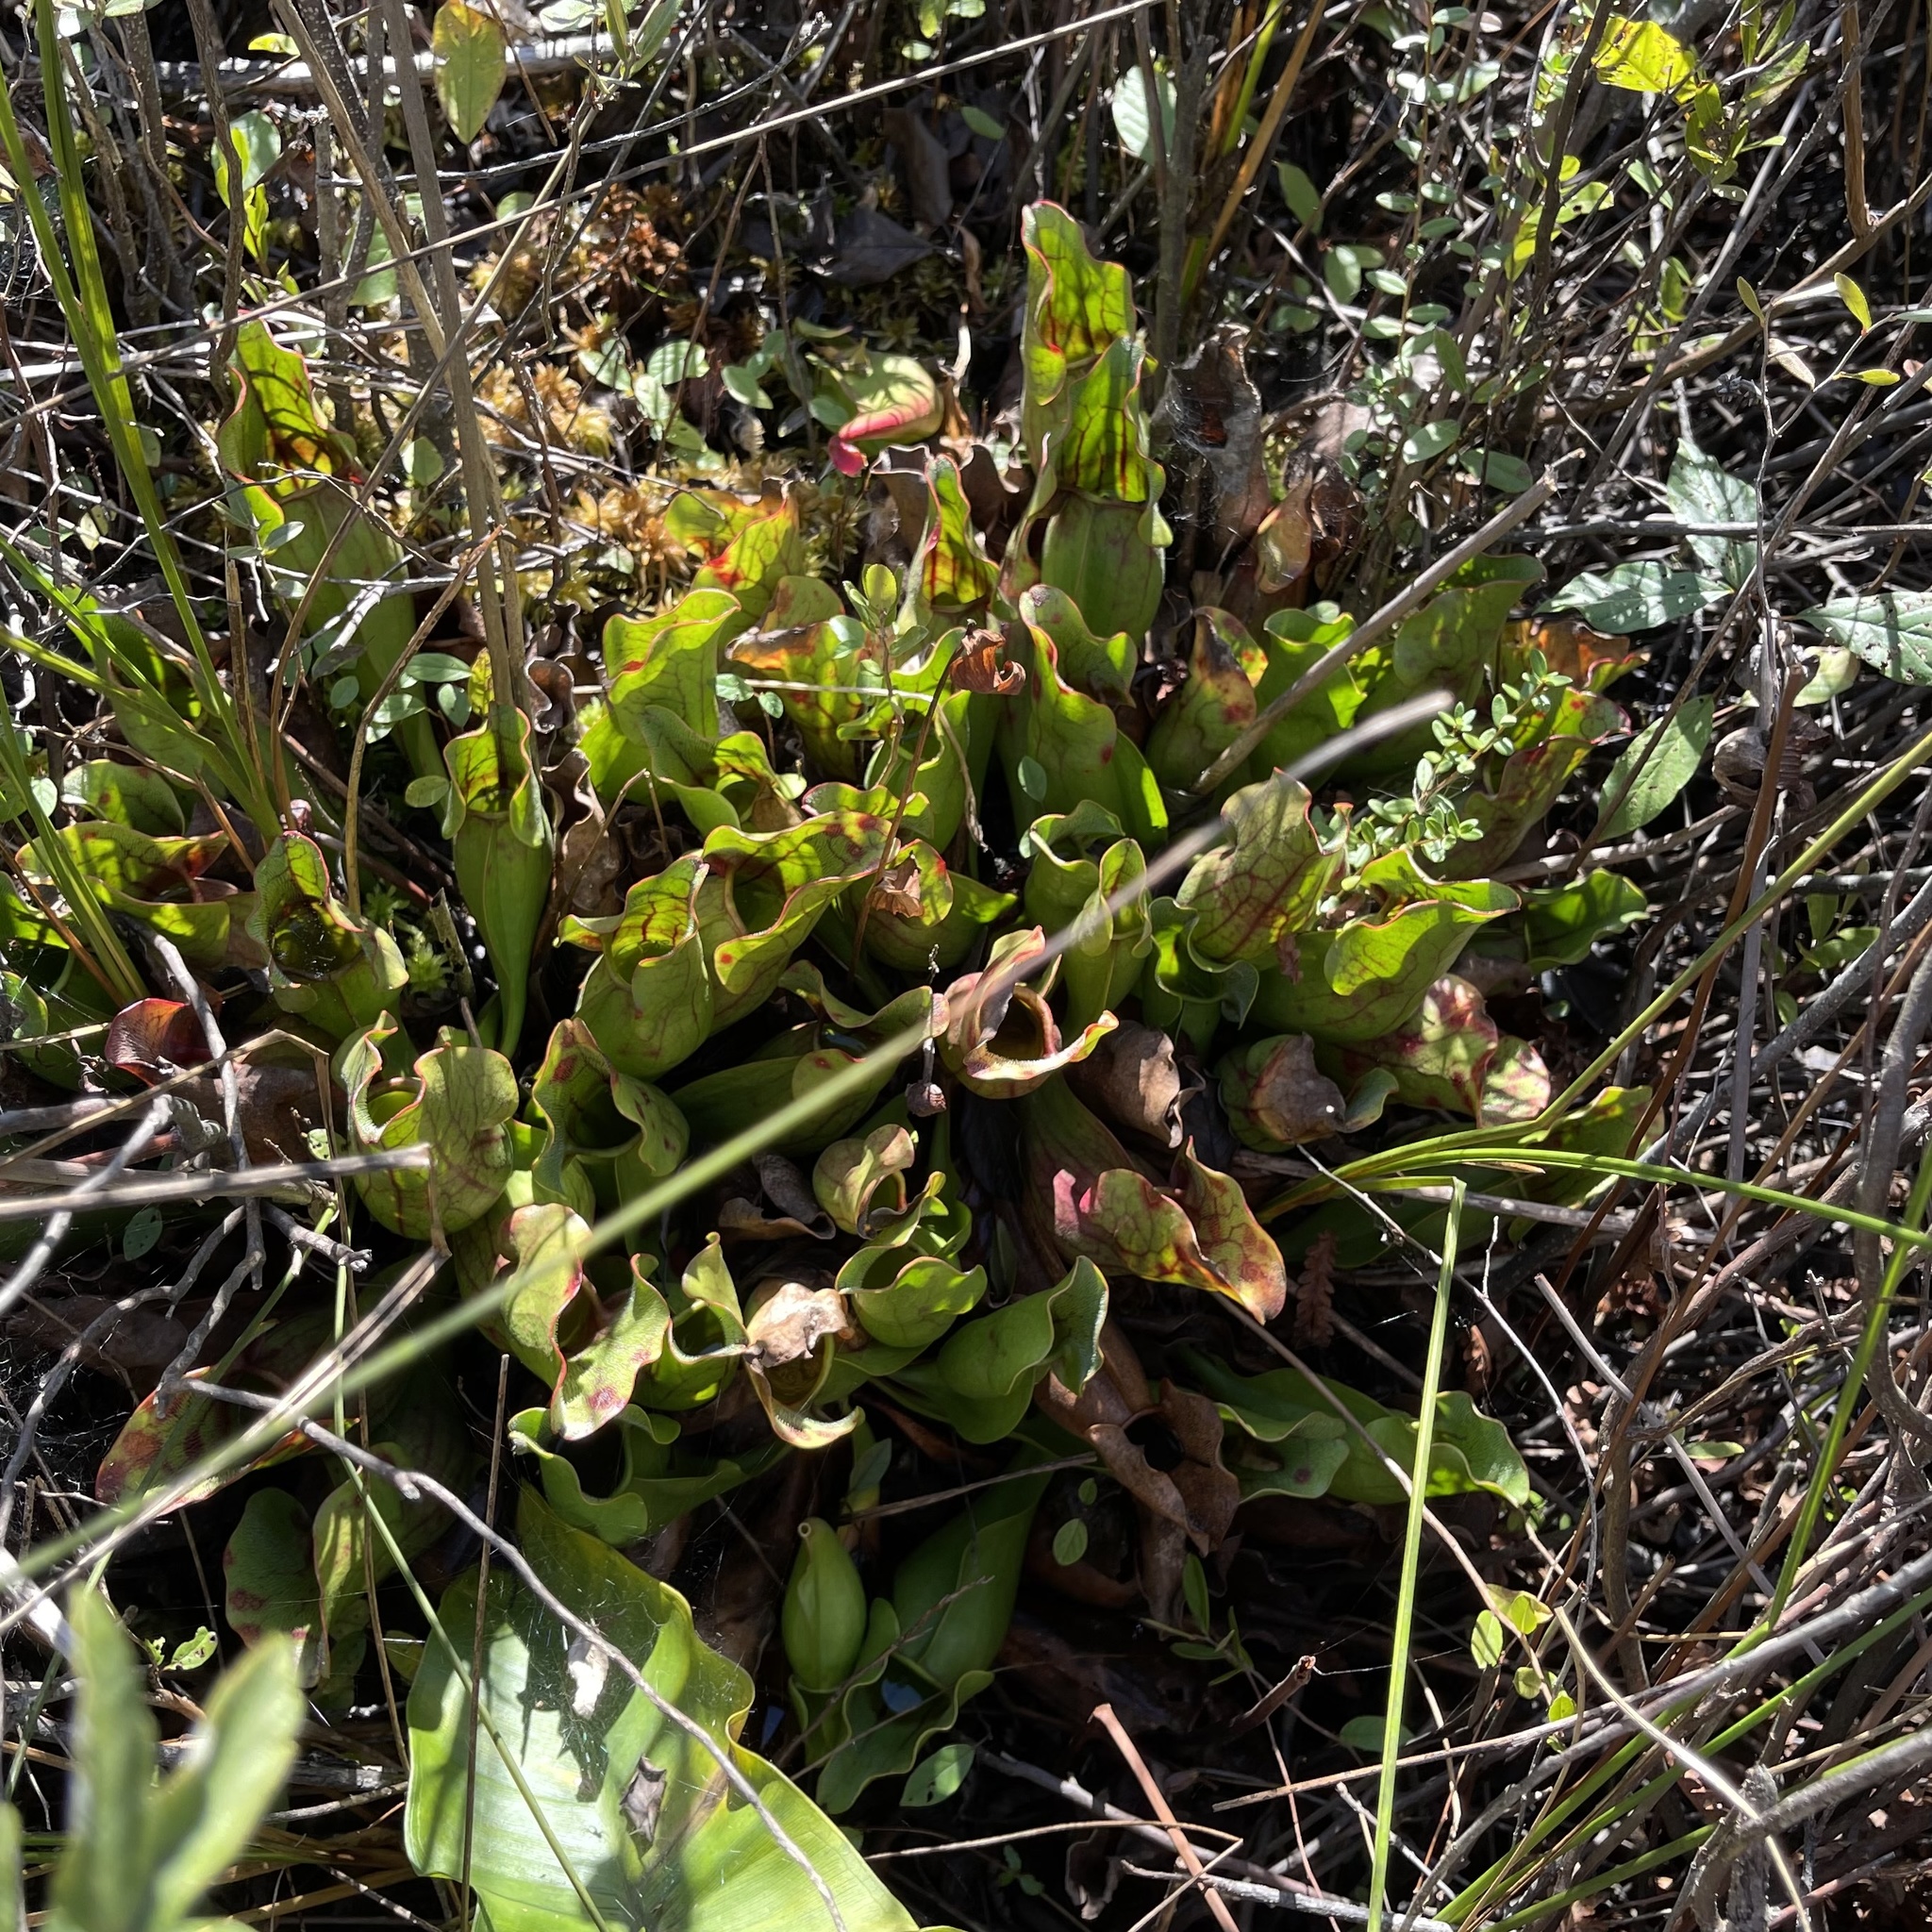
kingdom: Plantae
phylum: Tracheophyta
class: Magnoliopsida
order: Ericales
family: Sarraceniaceae
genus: Sarracenia
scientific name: Sarracenia purpurea
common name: Pitcherplant
